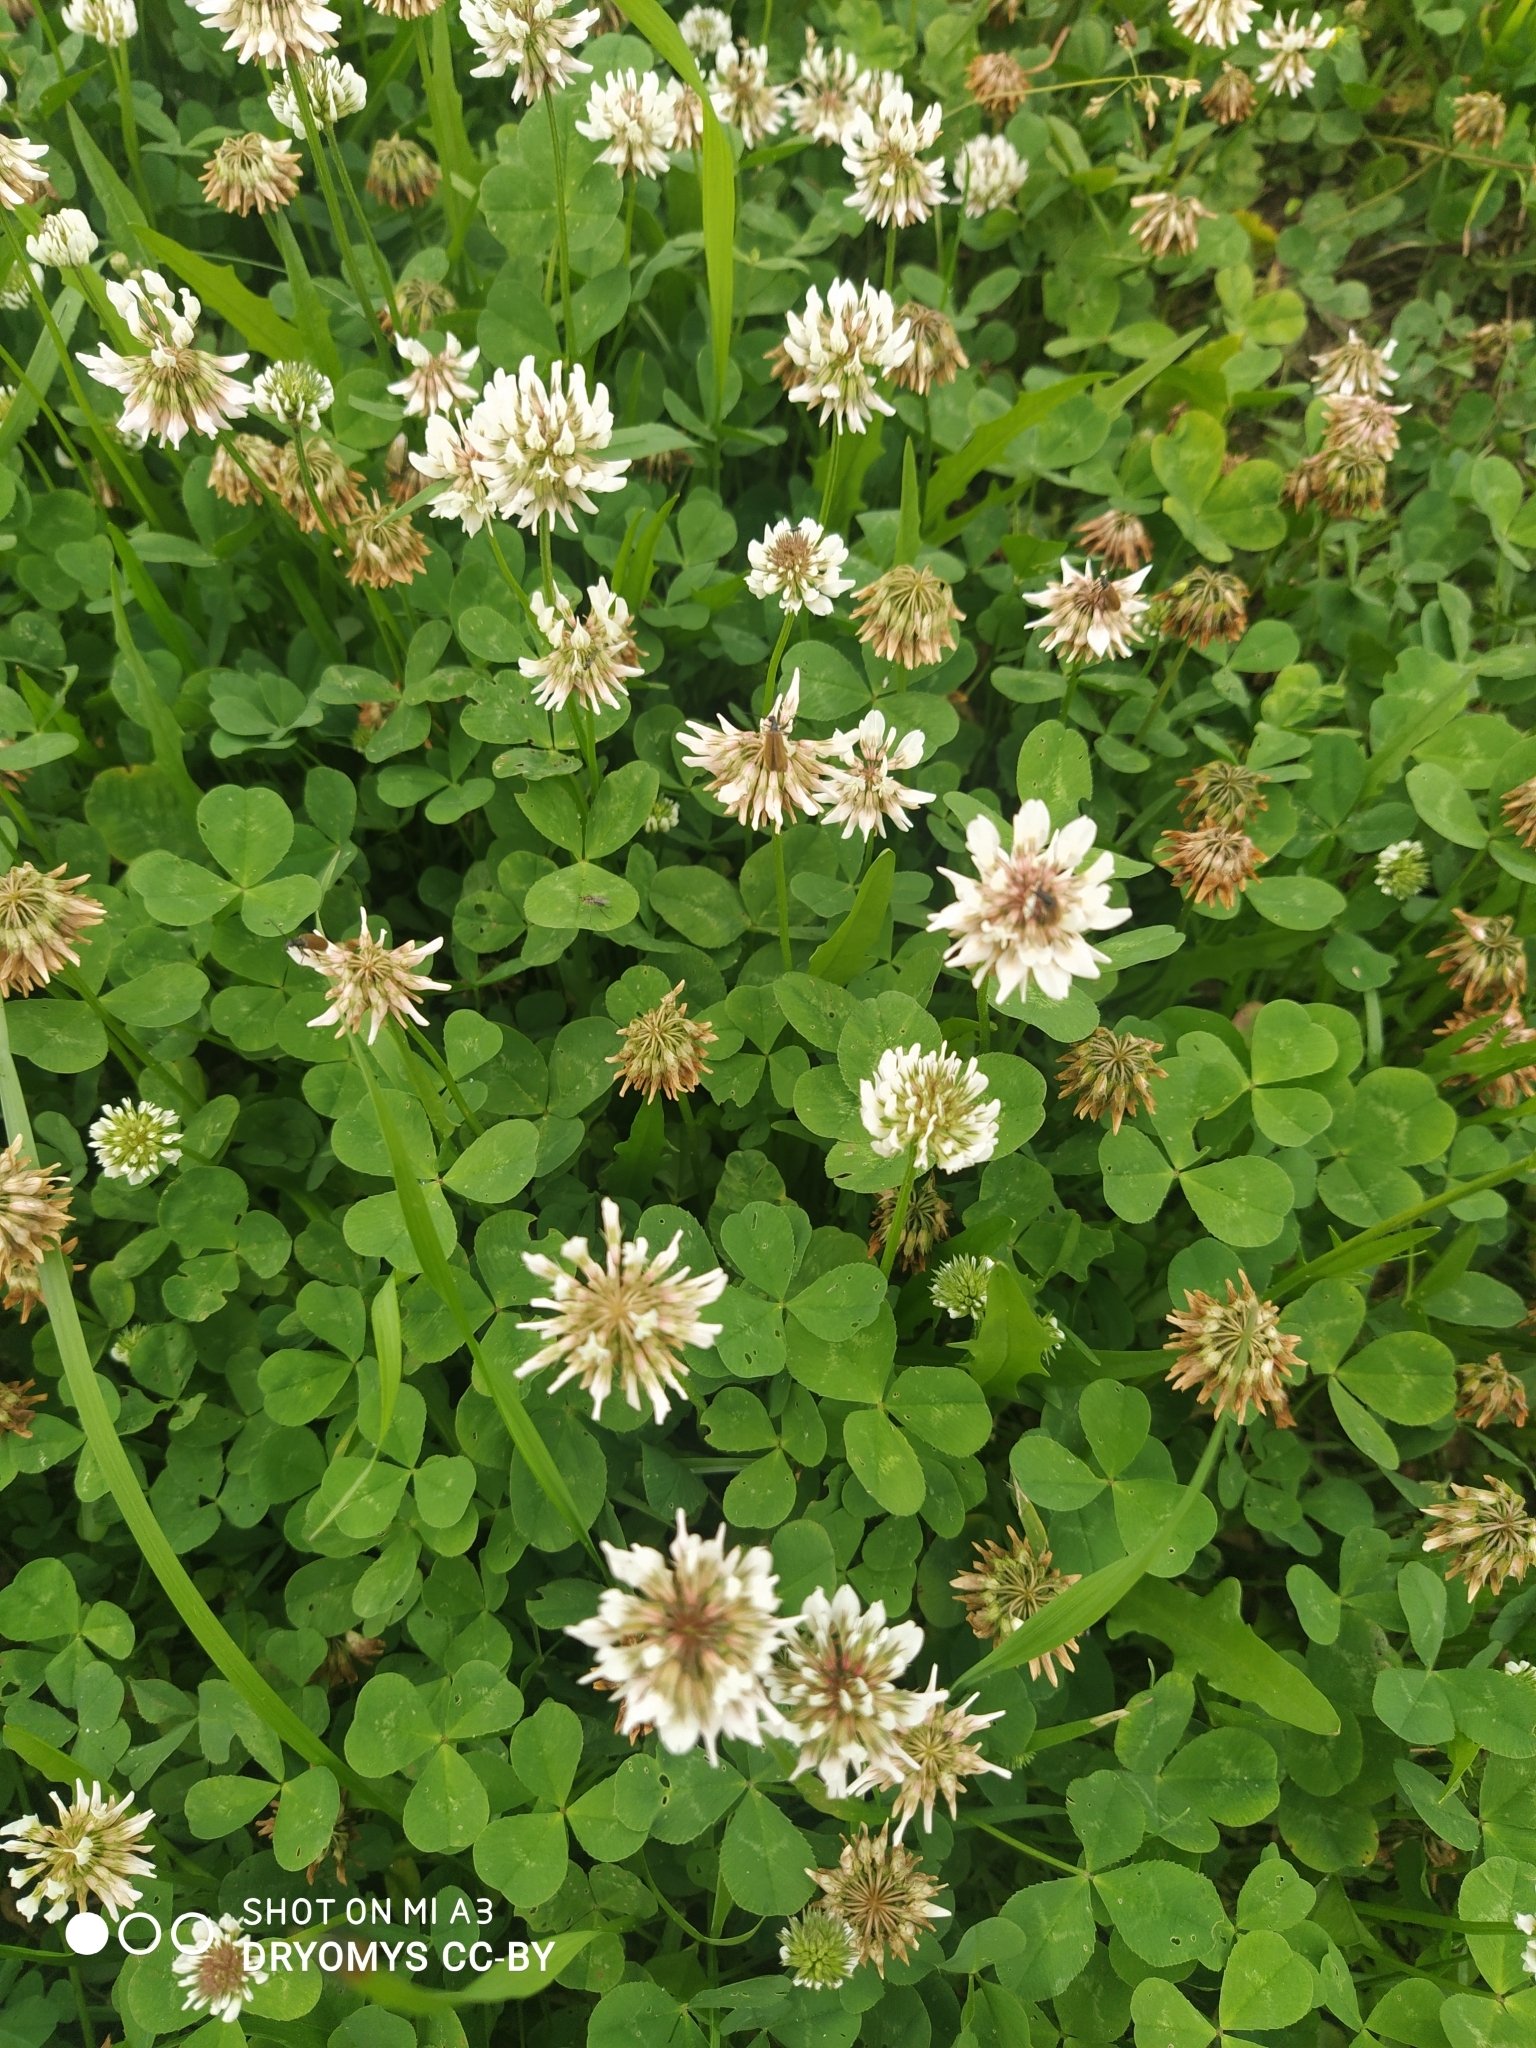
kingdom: Plantae
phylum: Tracheophyta
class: Magnoliopsida
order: Fabales
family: Fabaceae
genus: Trifolium
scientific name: Trifolium repens
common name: White clover
